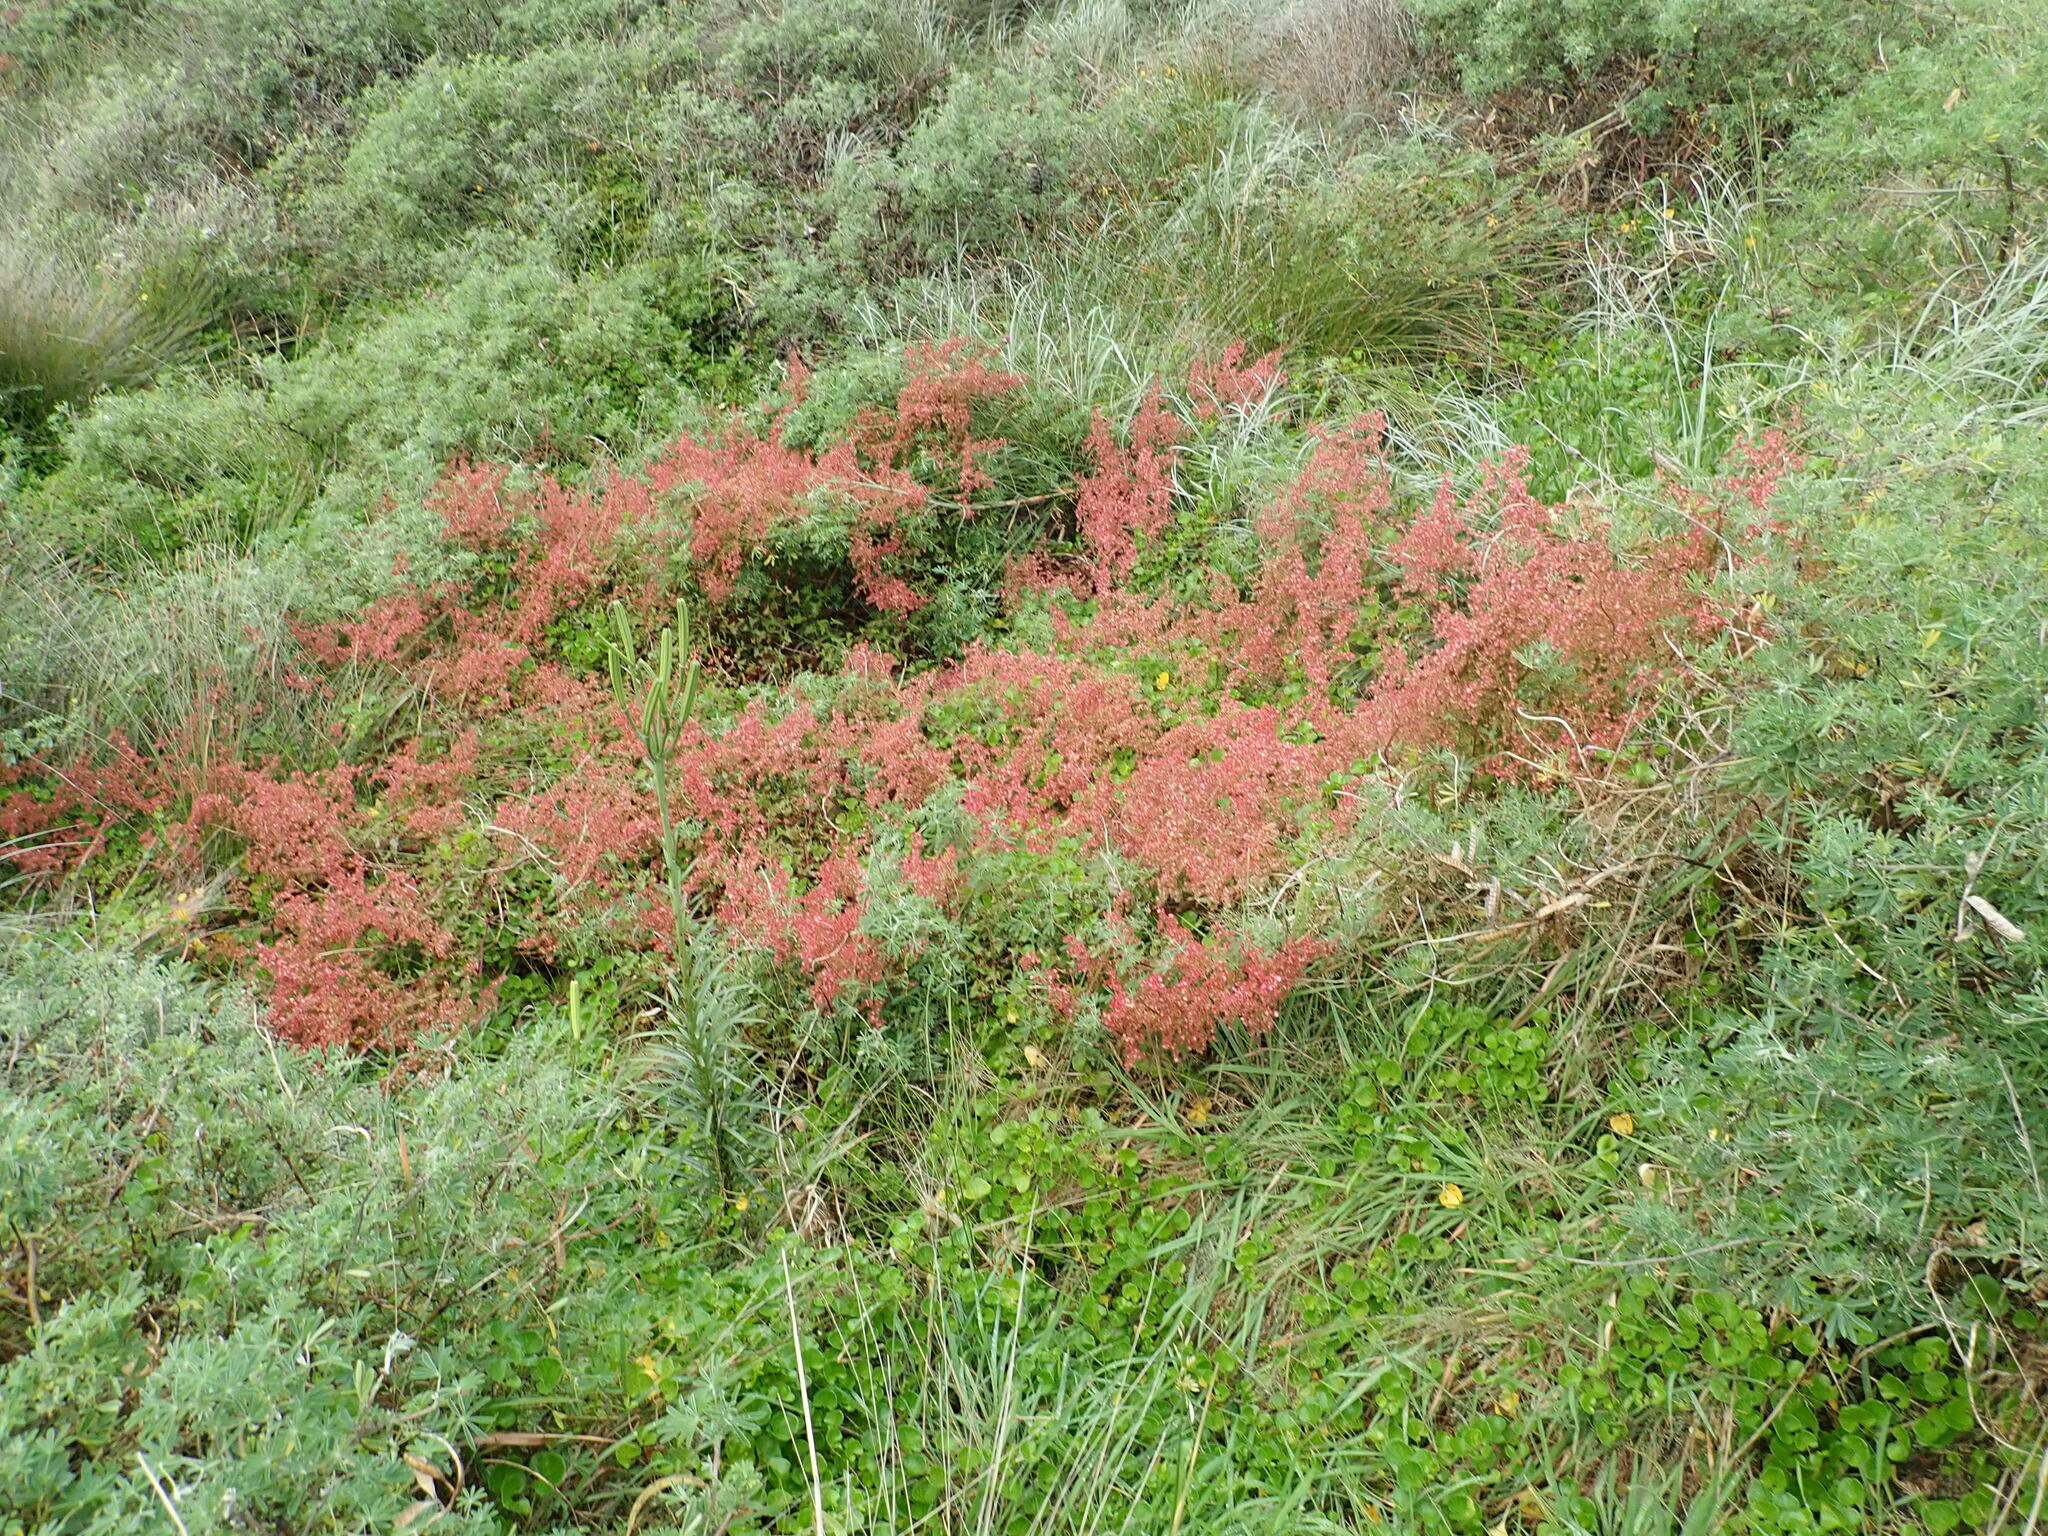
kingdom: Plantae
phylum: Tracheophyta
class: Magnoliopsida
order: Caryophyllales
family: Polygonaceae
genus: Rumex
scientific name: Rumex sagittatus
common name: Climbing dock
